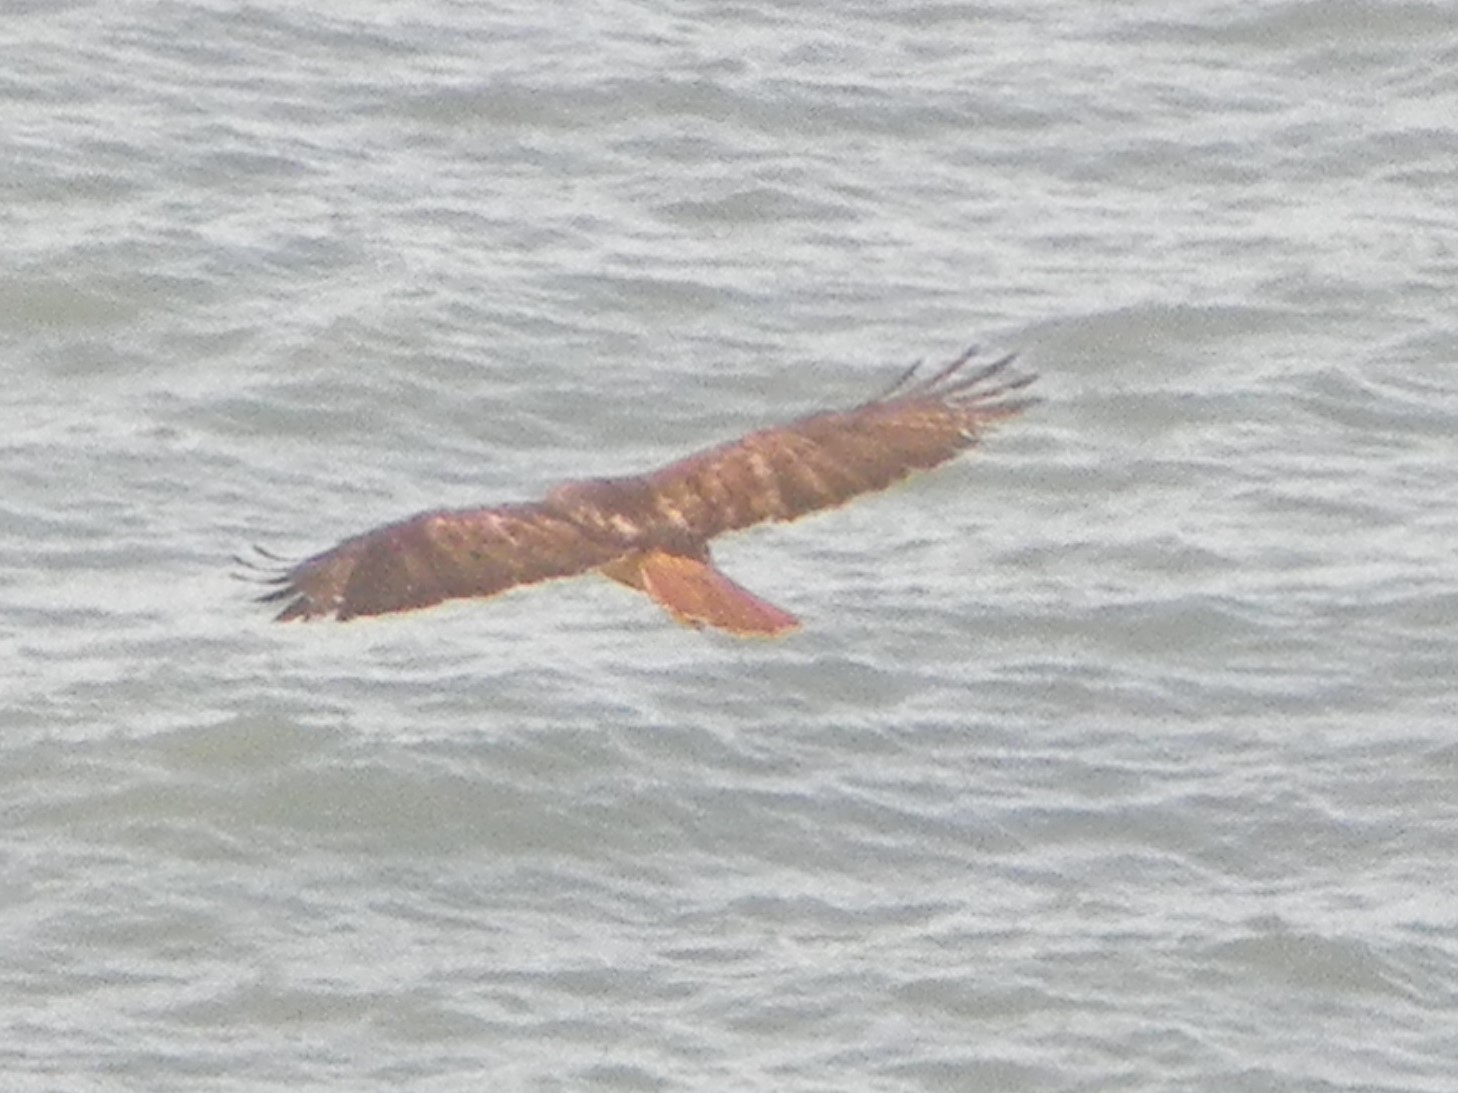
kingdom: Animalia
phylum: Chordata
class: Aves
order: Accipitriformes
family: Accipitridae
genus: Buteo
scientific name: Buteo jamaicensis
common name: Red-tailed hawk
